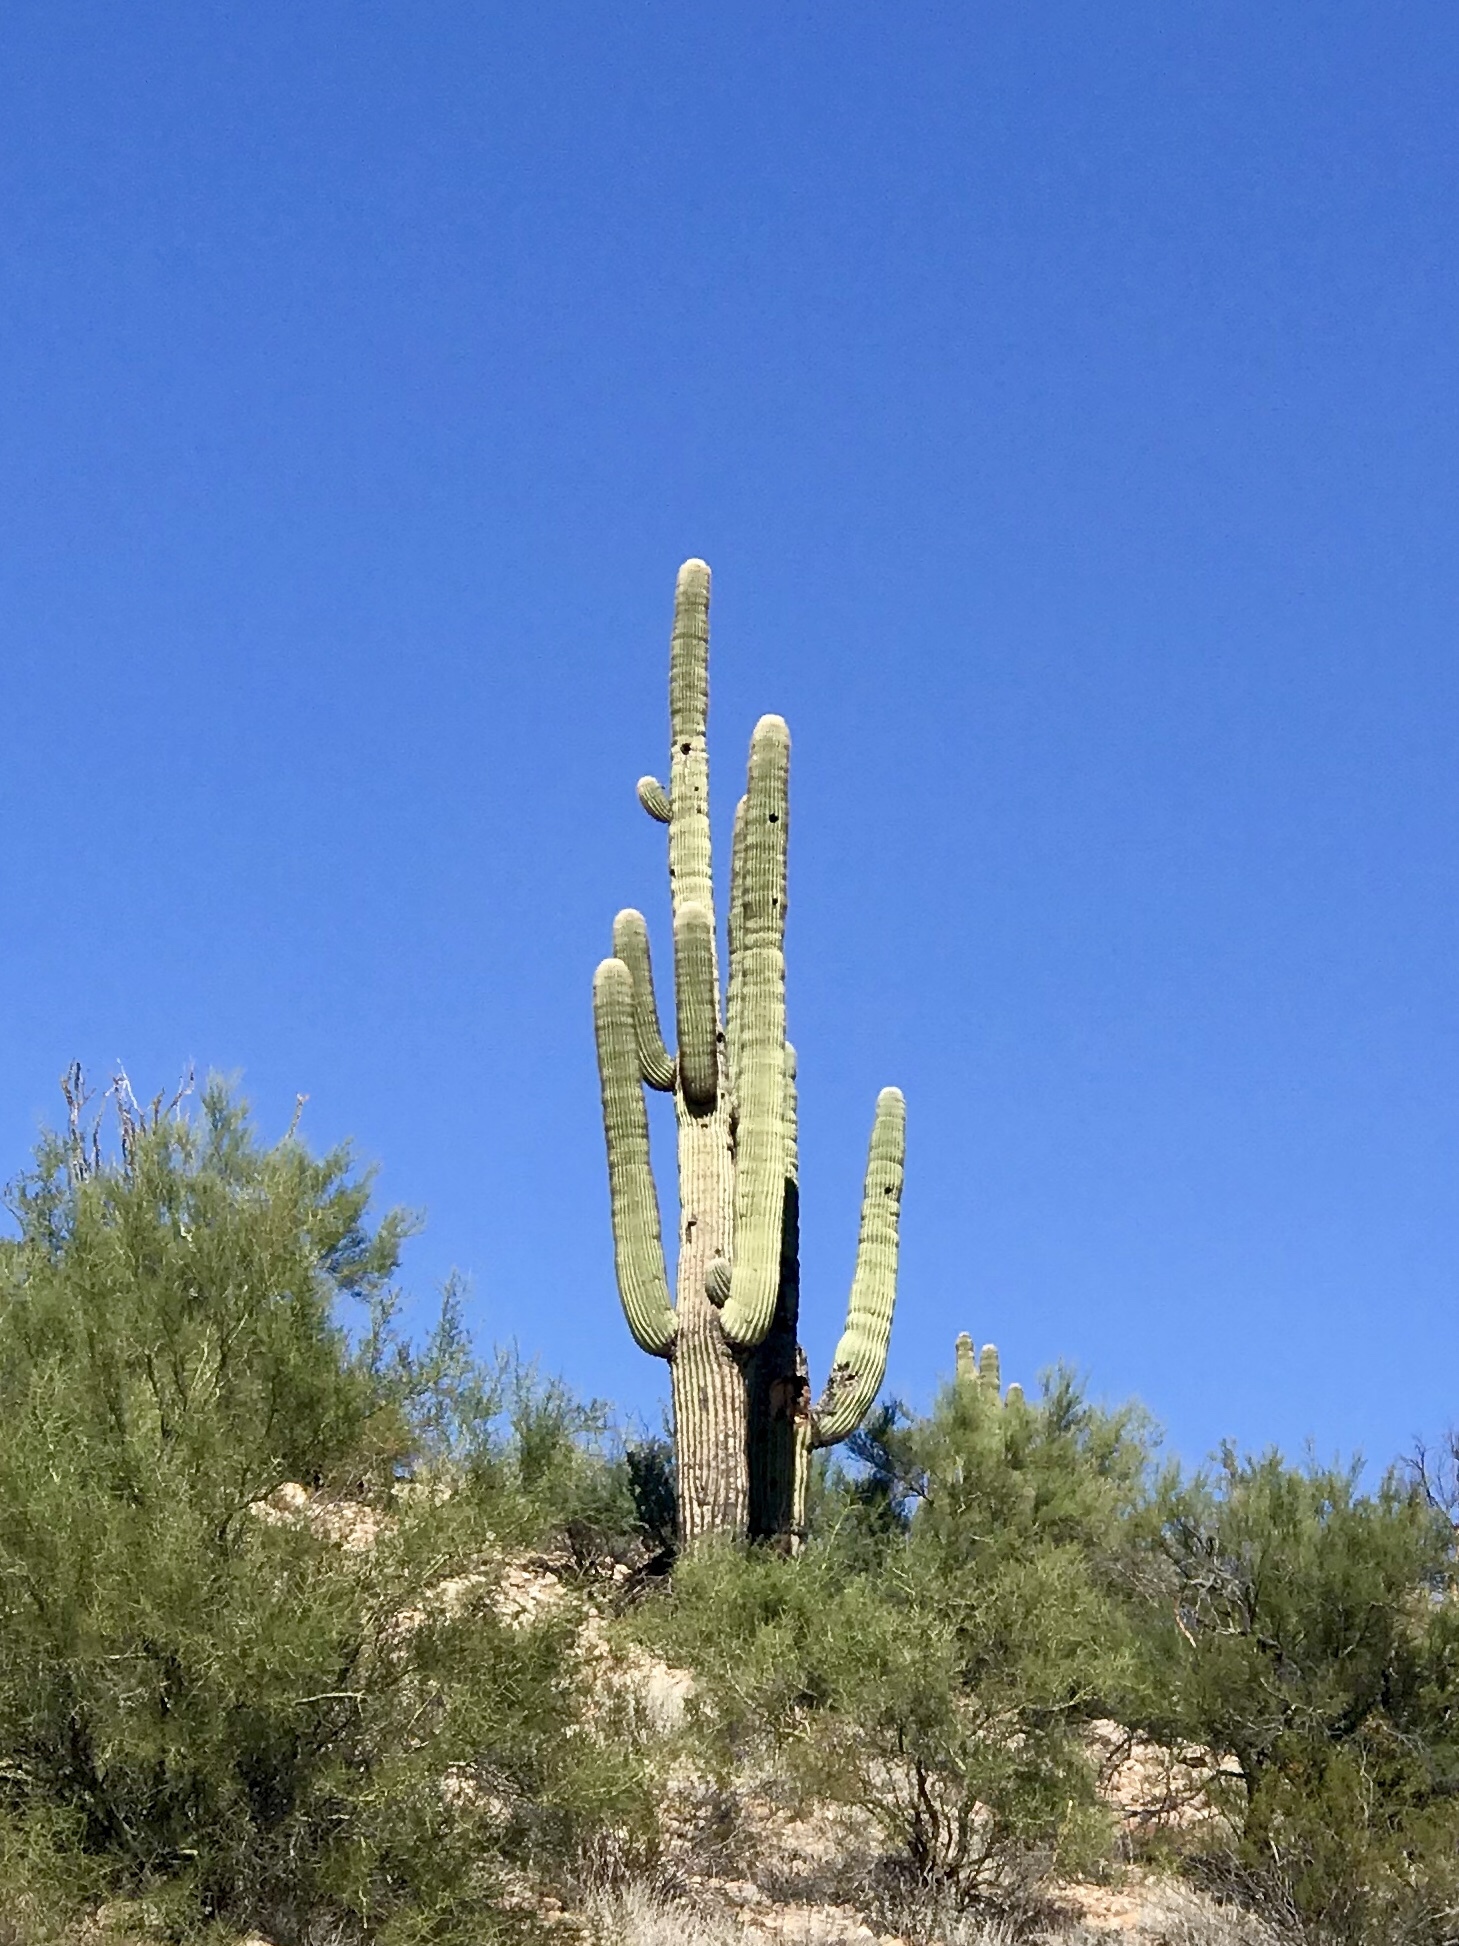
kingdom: Plantae
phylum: Tracheophyta
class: Magnoliopsida
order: Caryophyllales
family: Cactaceae
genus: Carnegiea
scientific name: Carnegiea gigantea
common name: Saguaro
